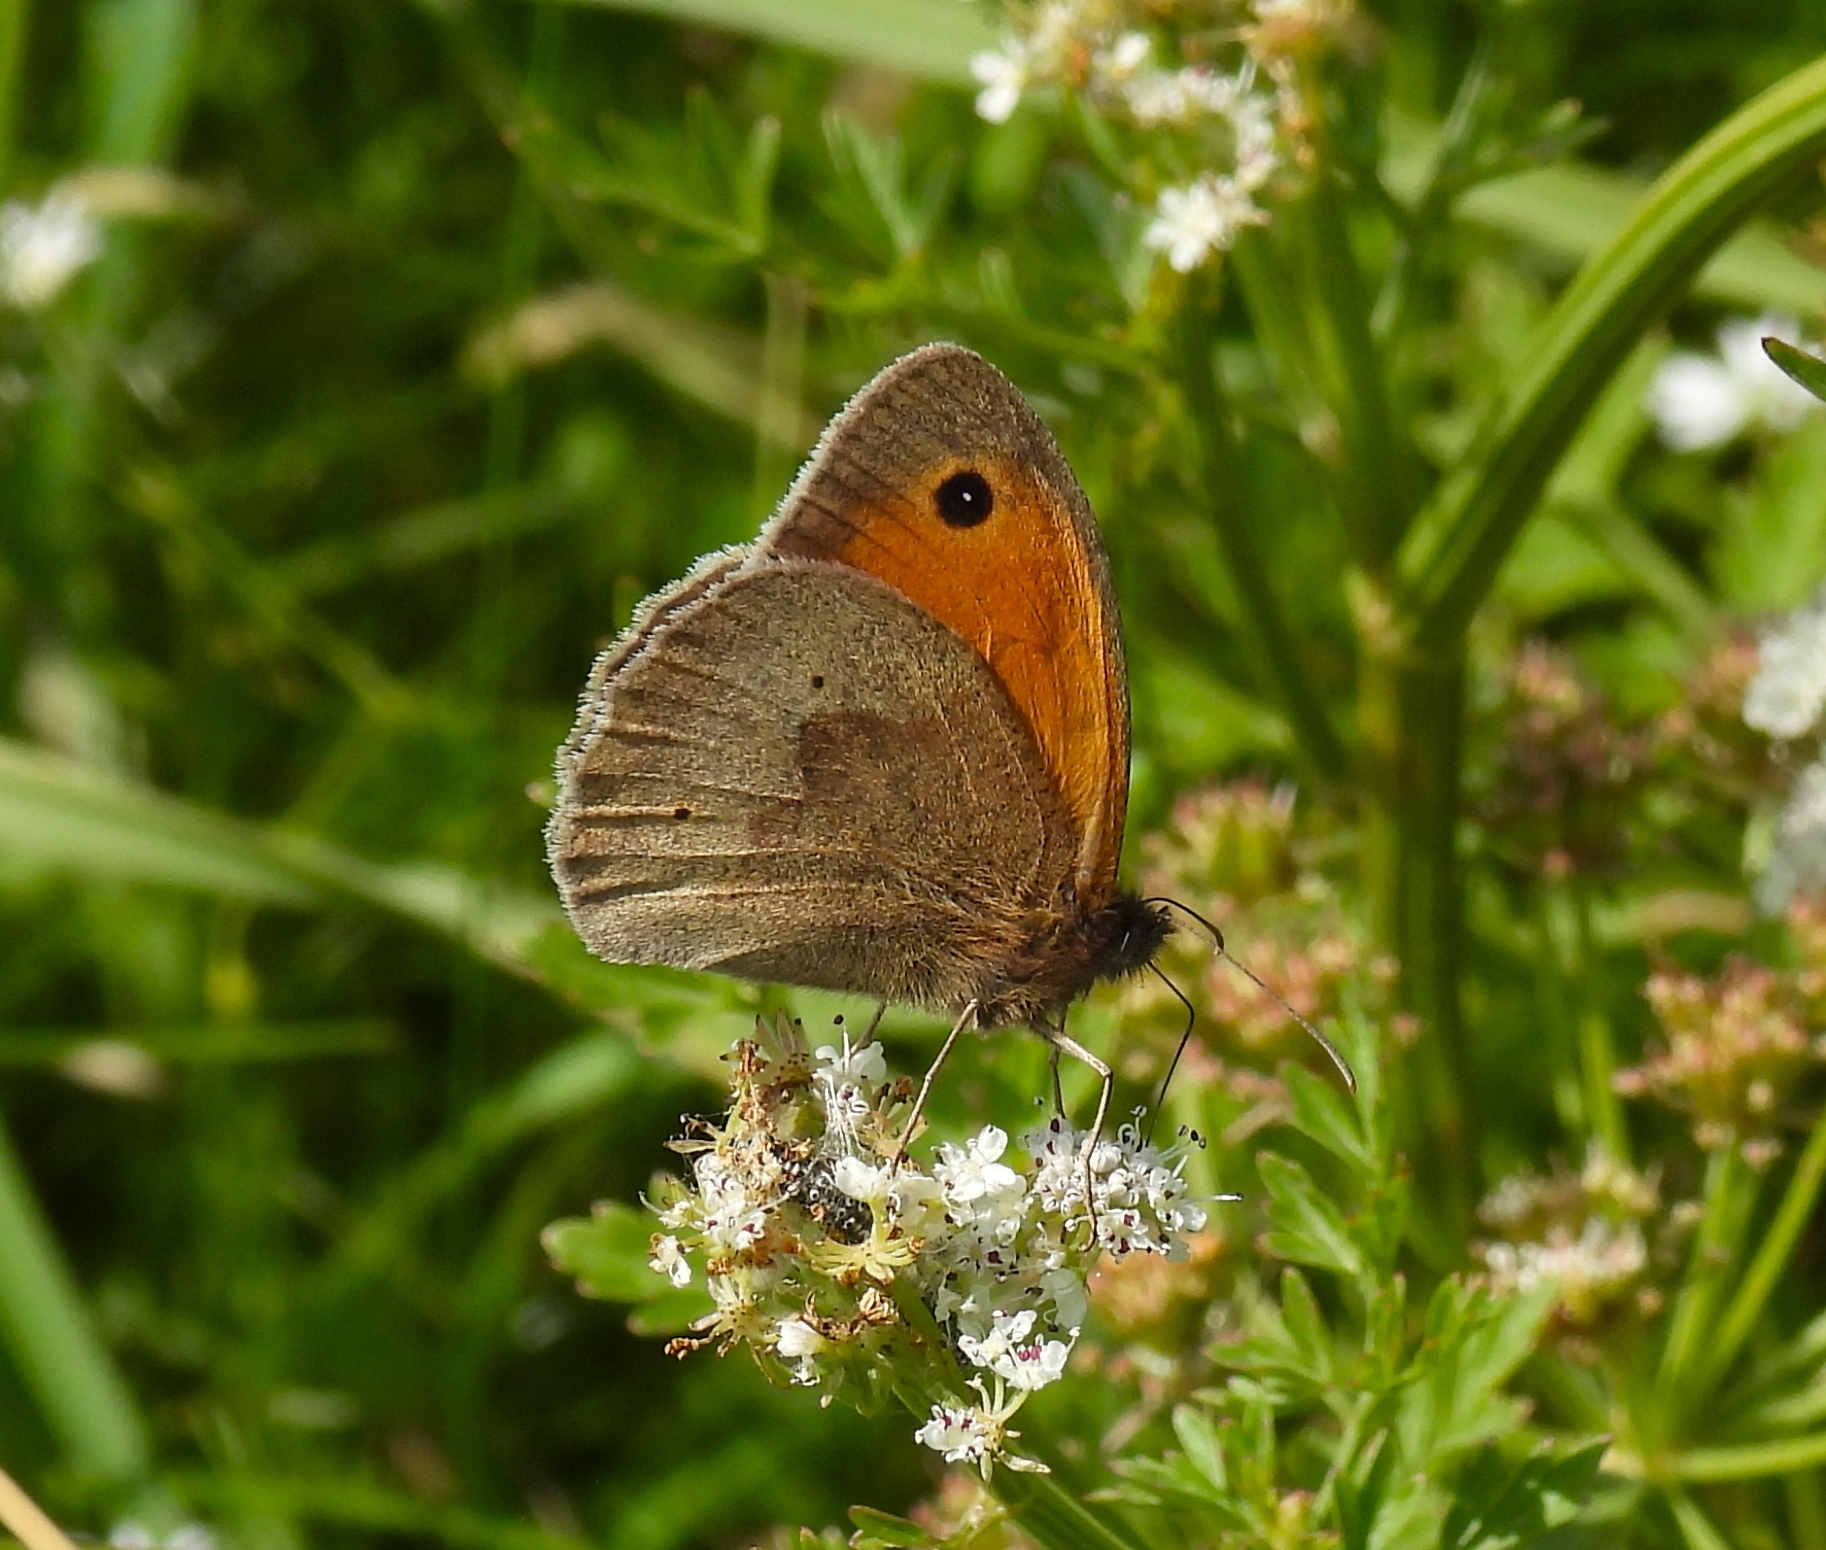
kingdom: Animalia
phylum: Arthropoda
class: Insecta
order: Lepidoptera
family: Nymphalidae
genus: Maniola
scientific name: Maniola jurtina
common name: Meadow brown
